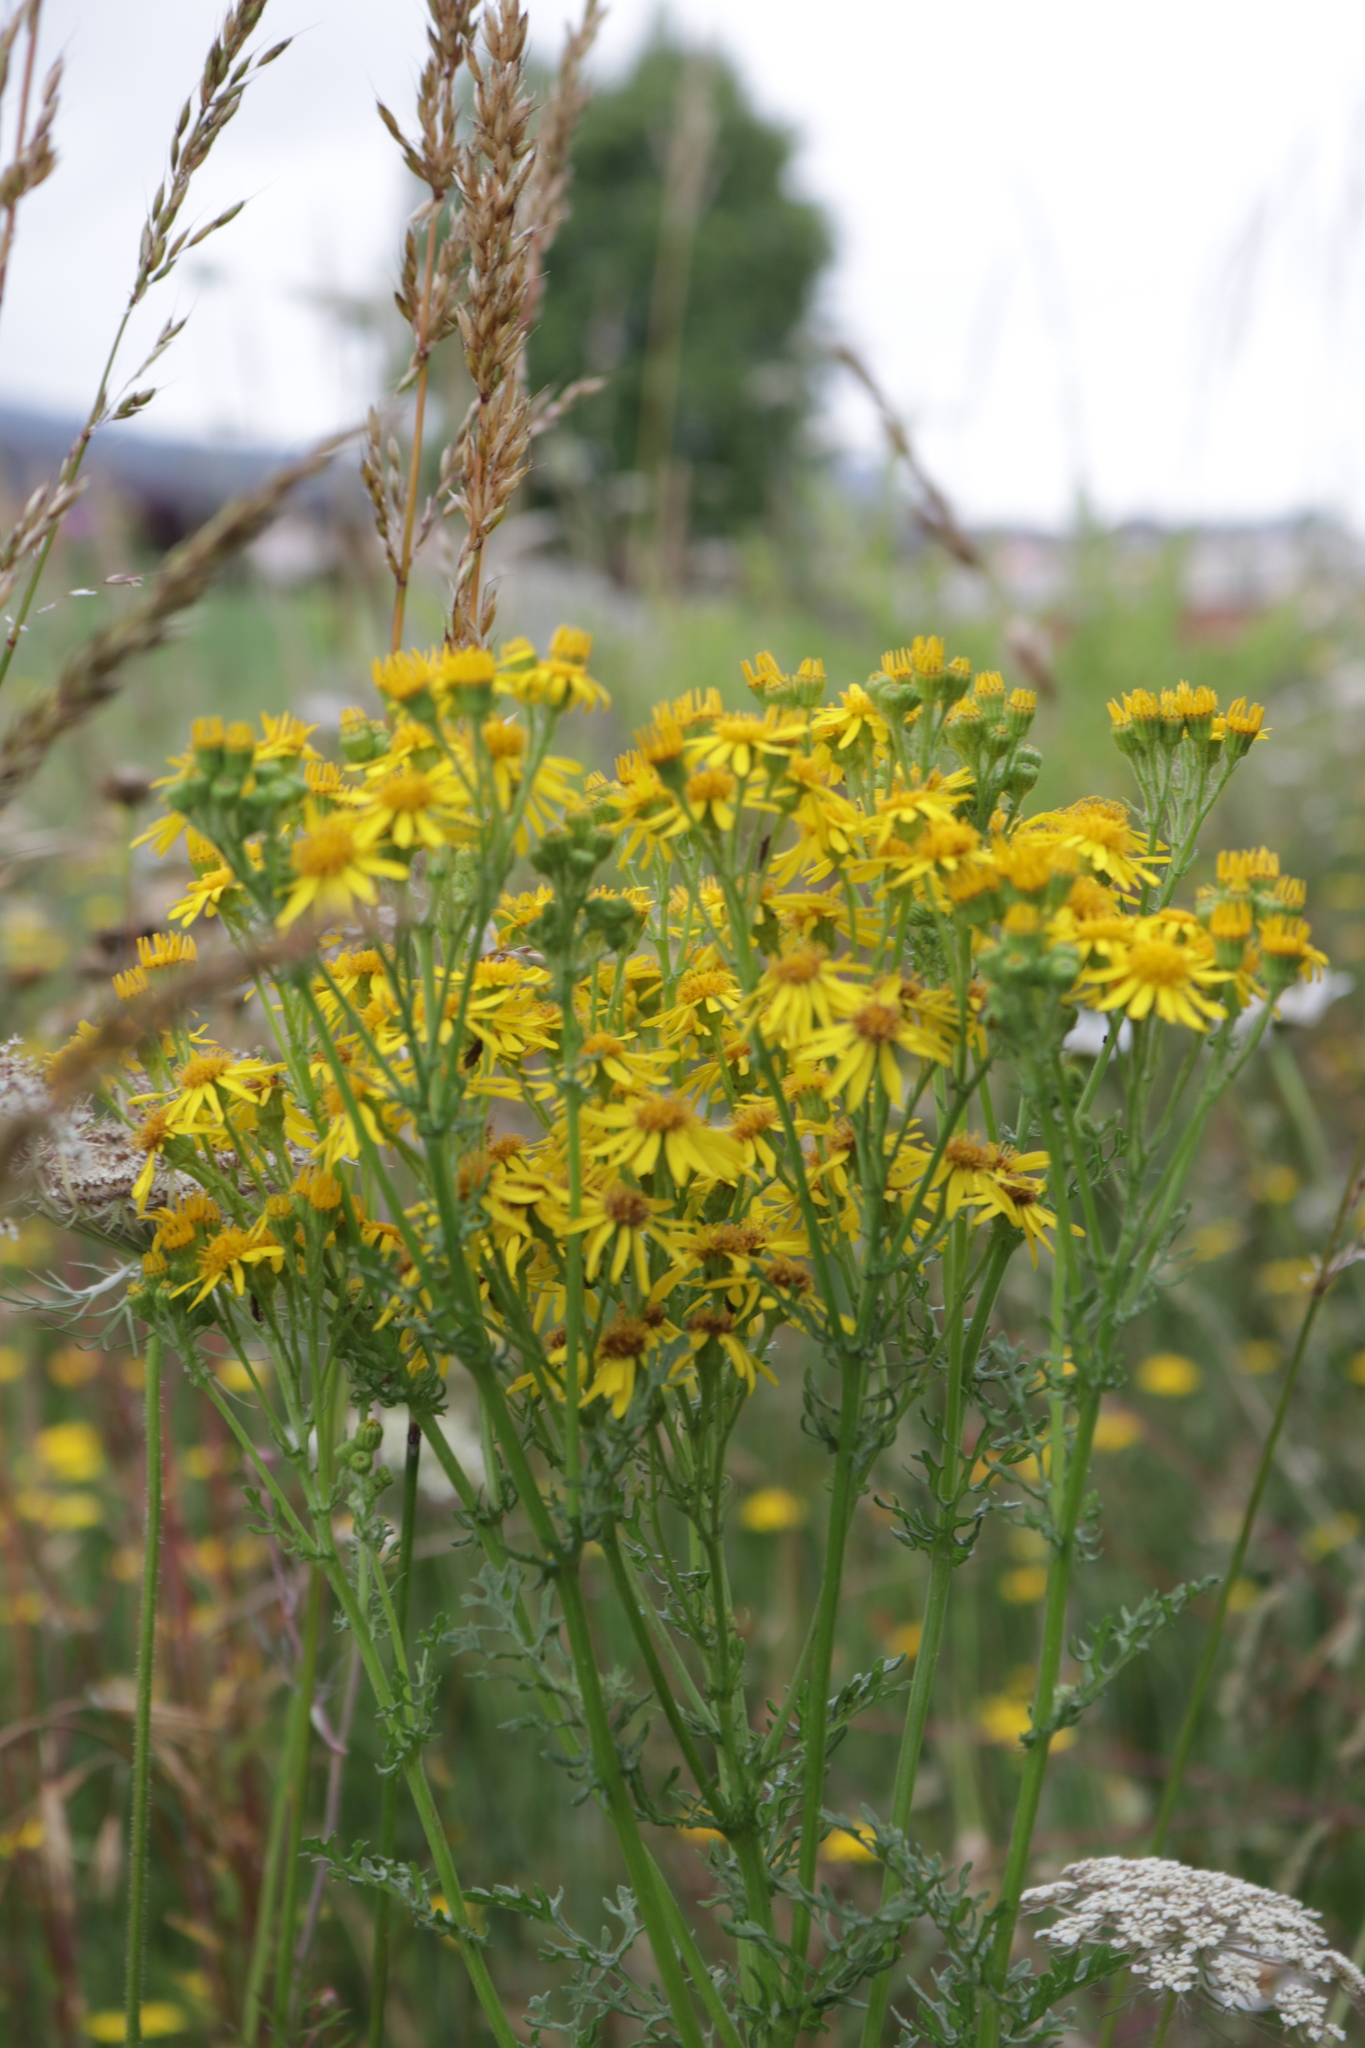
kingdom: Plantae
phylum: Tracheophyta
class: Magnoliopsida
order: Asterales
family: Asteraceae
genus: Jacobaea
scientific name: Jacobaea vulgaris
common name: Stinking willie
